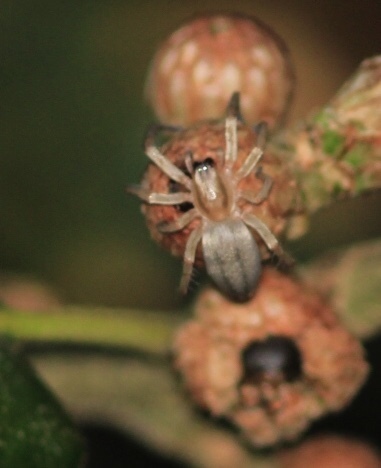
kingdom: Animalia
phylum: Arthropoda
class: Arachnida
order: Araneae
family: Anyphaenidae
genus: Hibana
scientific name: Hibana incursa
